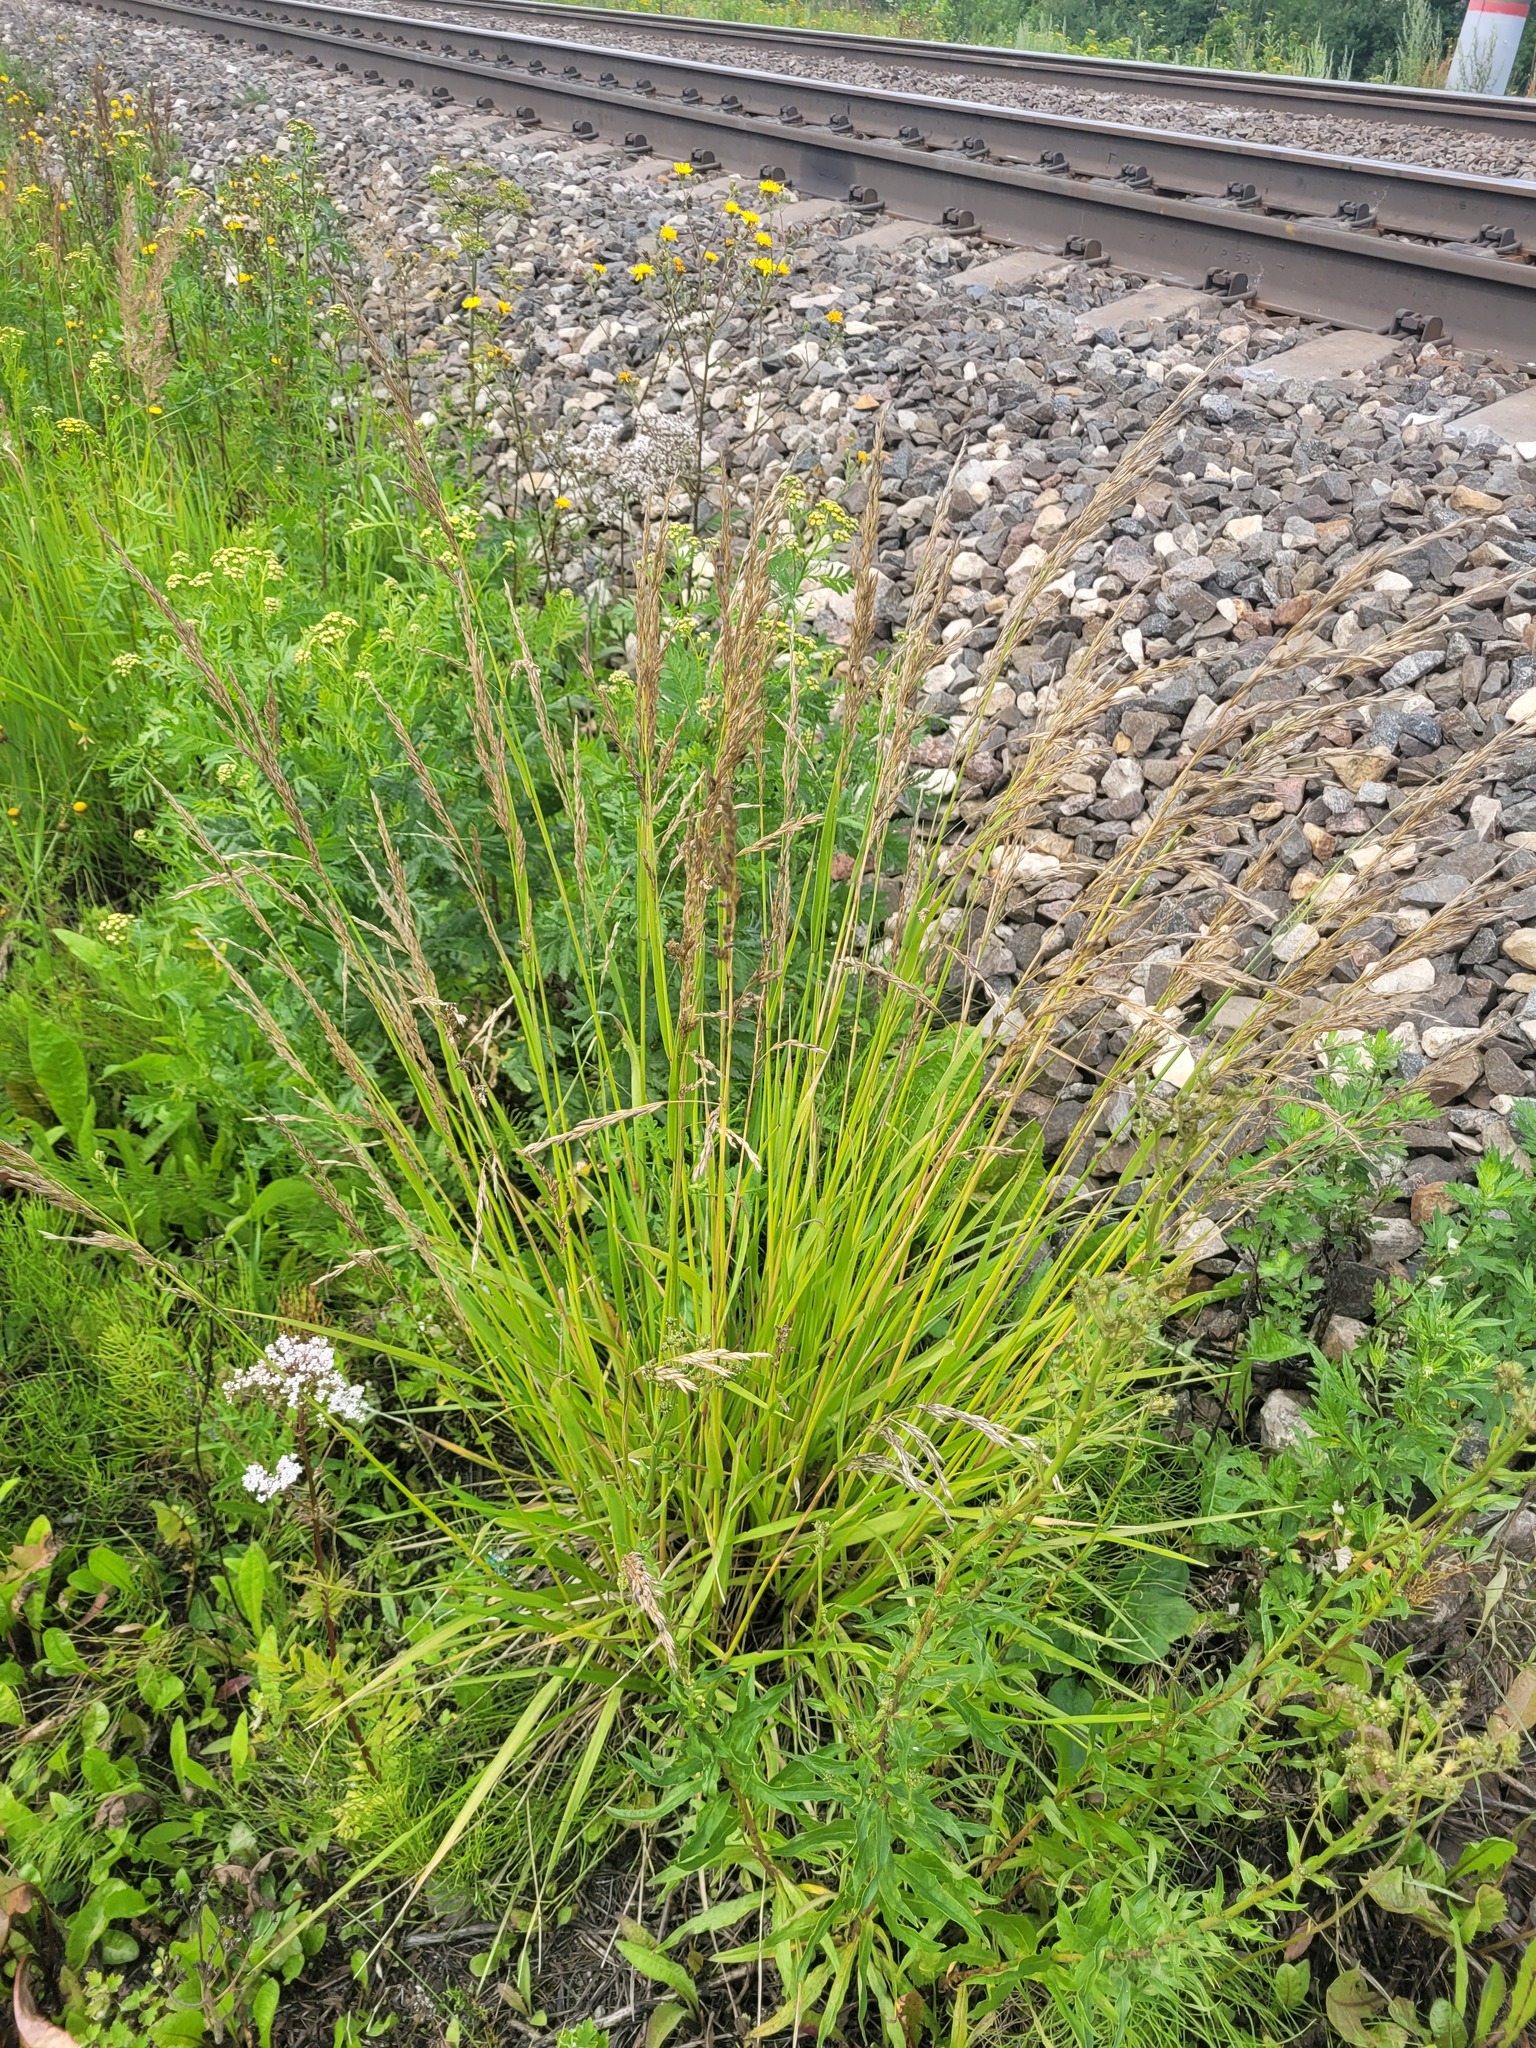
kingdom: Plantae
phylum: Tracheophyta
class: Liliopsida
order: Poales
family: Poaceae
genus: Lolium
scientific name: Lolium arundinaceum
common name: Reed fescue
